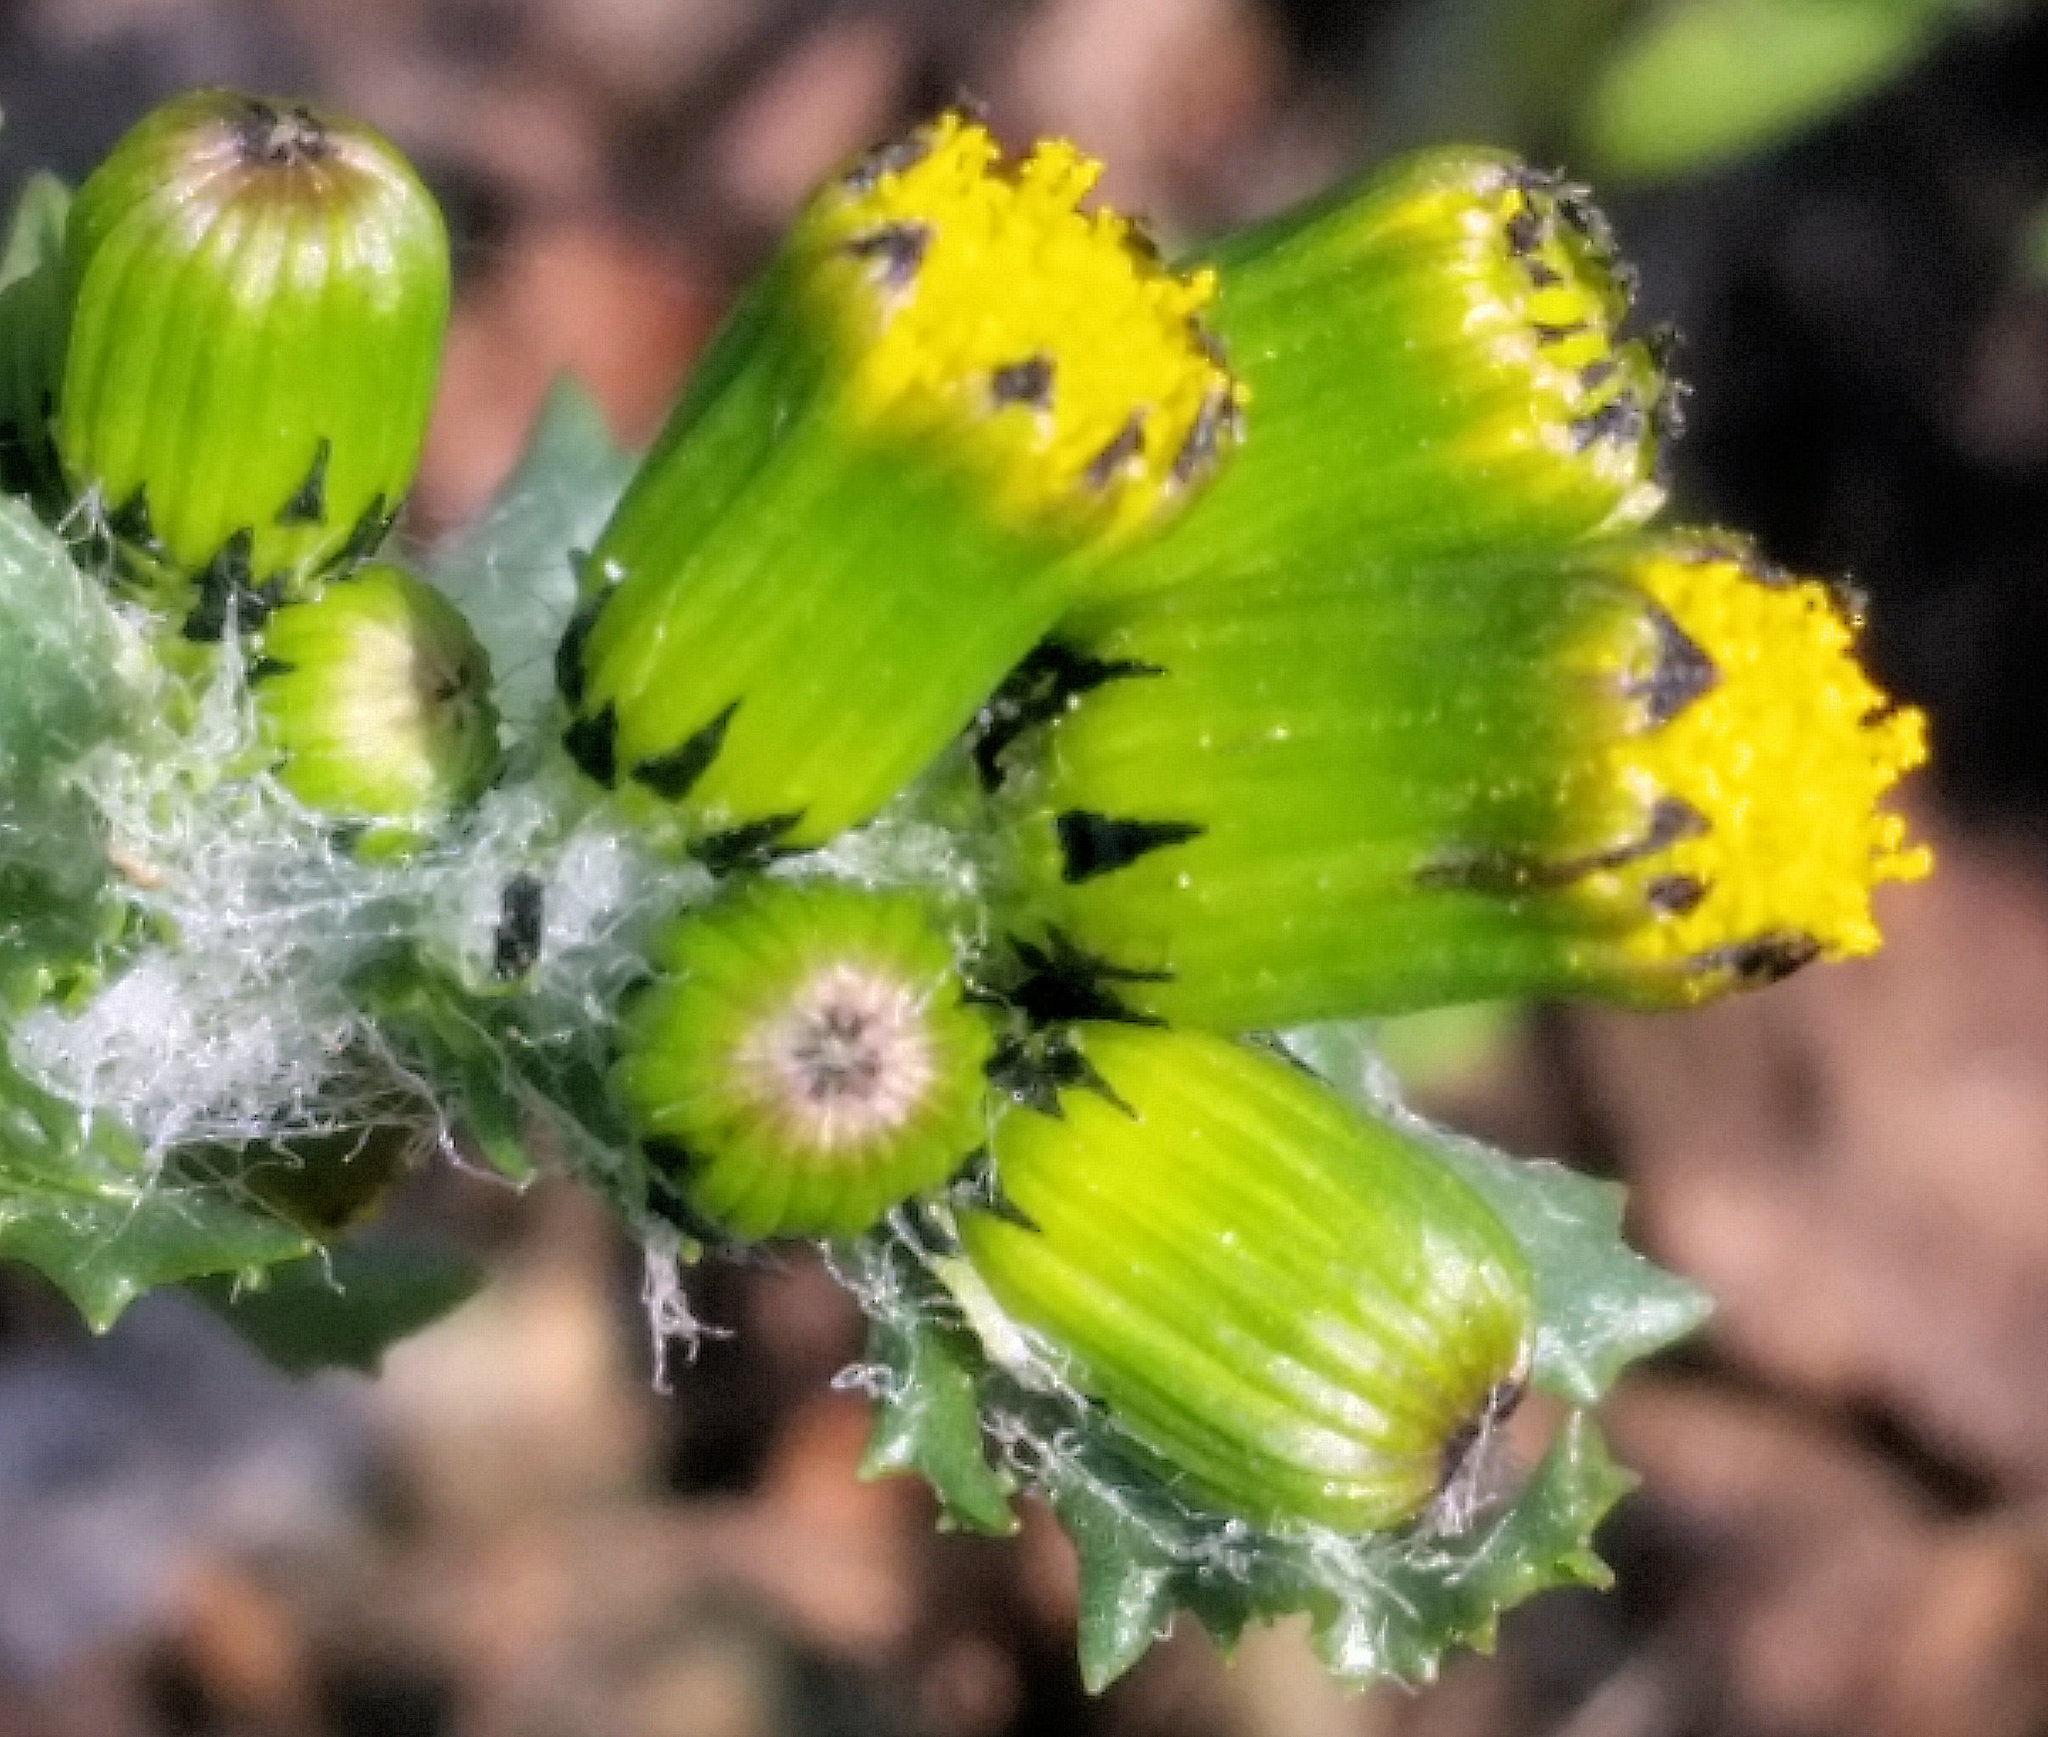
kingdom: Plantae
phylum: Tracheophyta
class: Magnoliopsida
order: Asterales
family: Asteraceae
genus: Senecio
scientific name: Senecio vulgaris
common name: Old-man-in-the-spring
